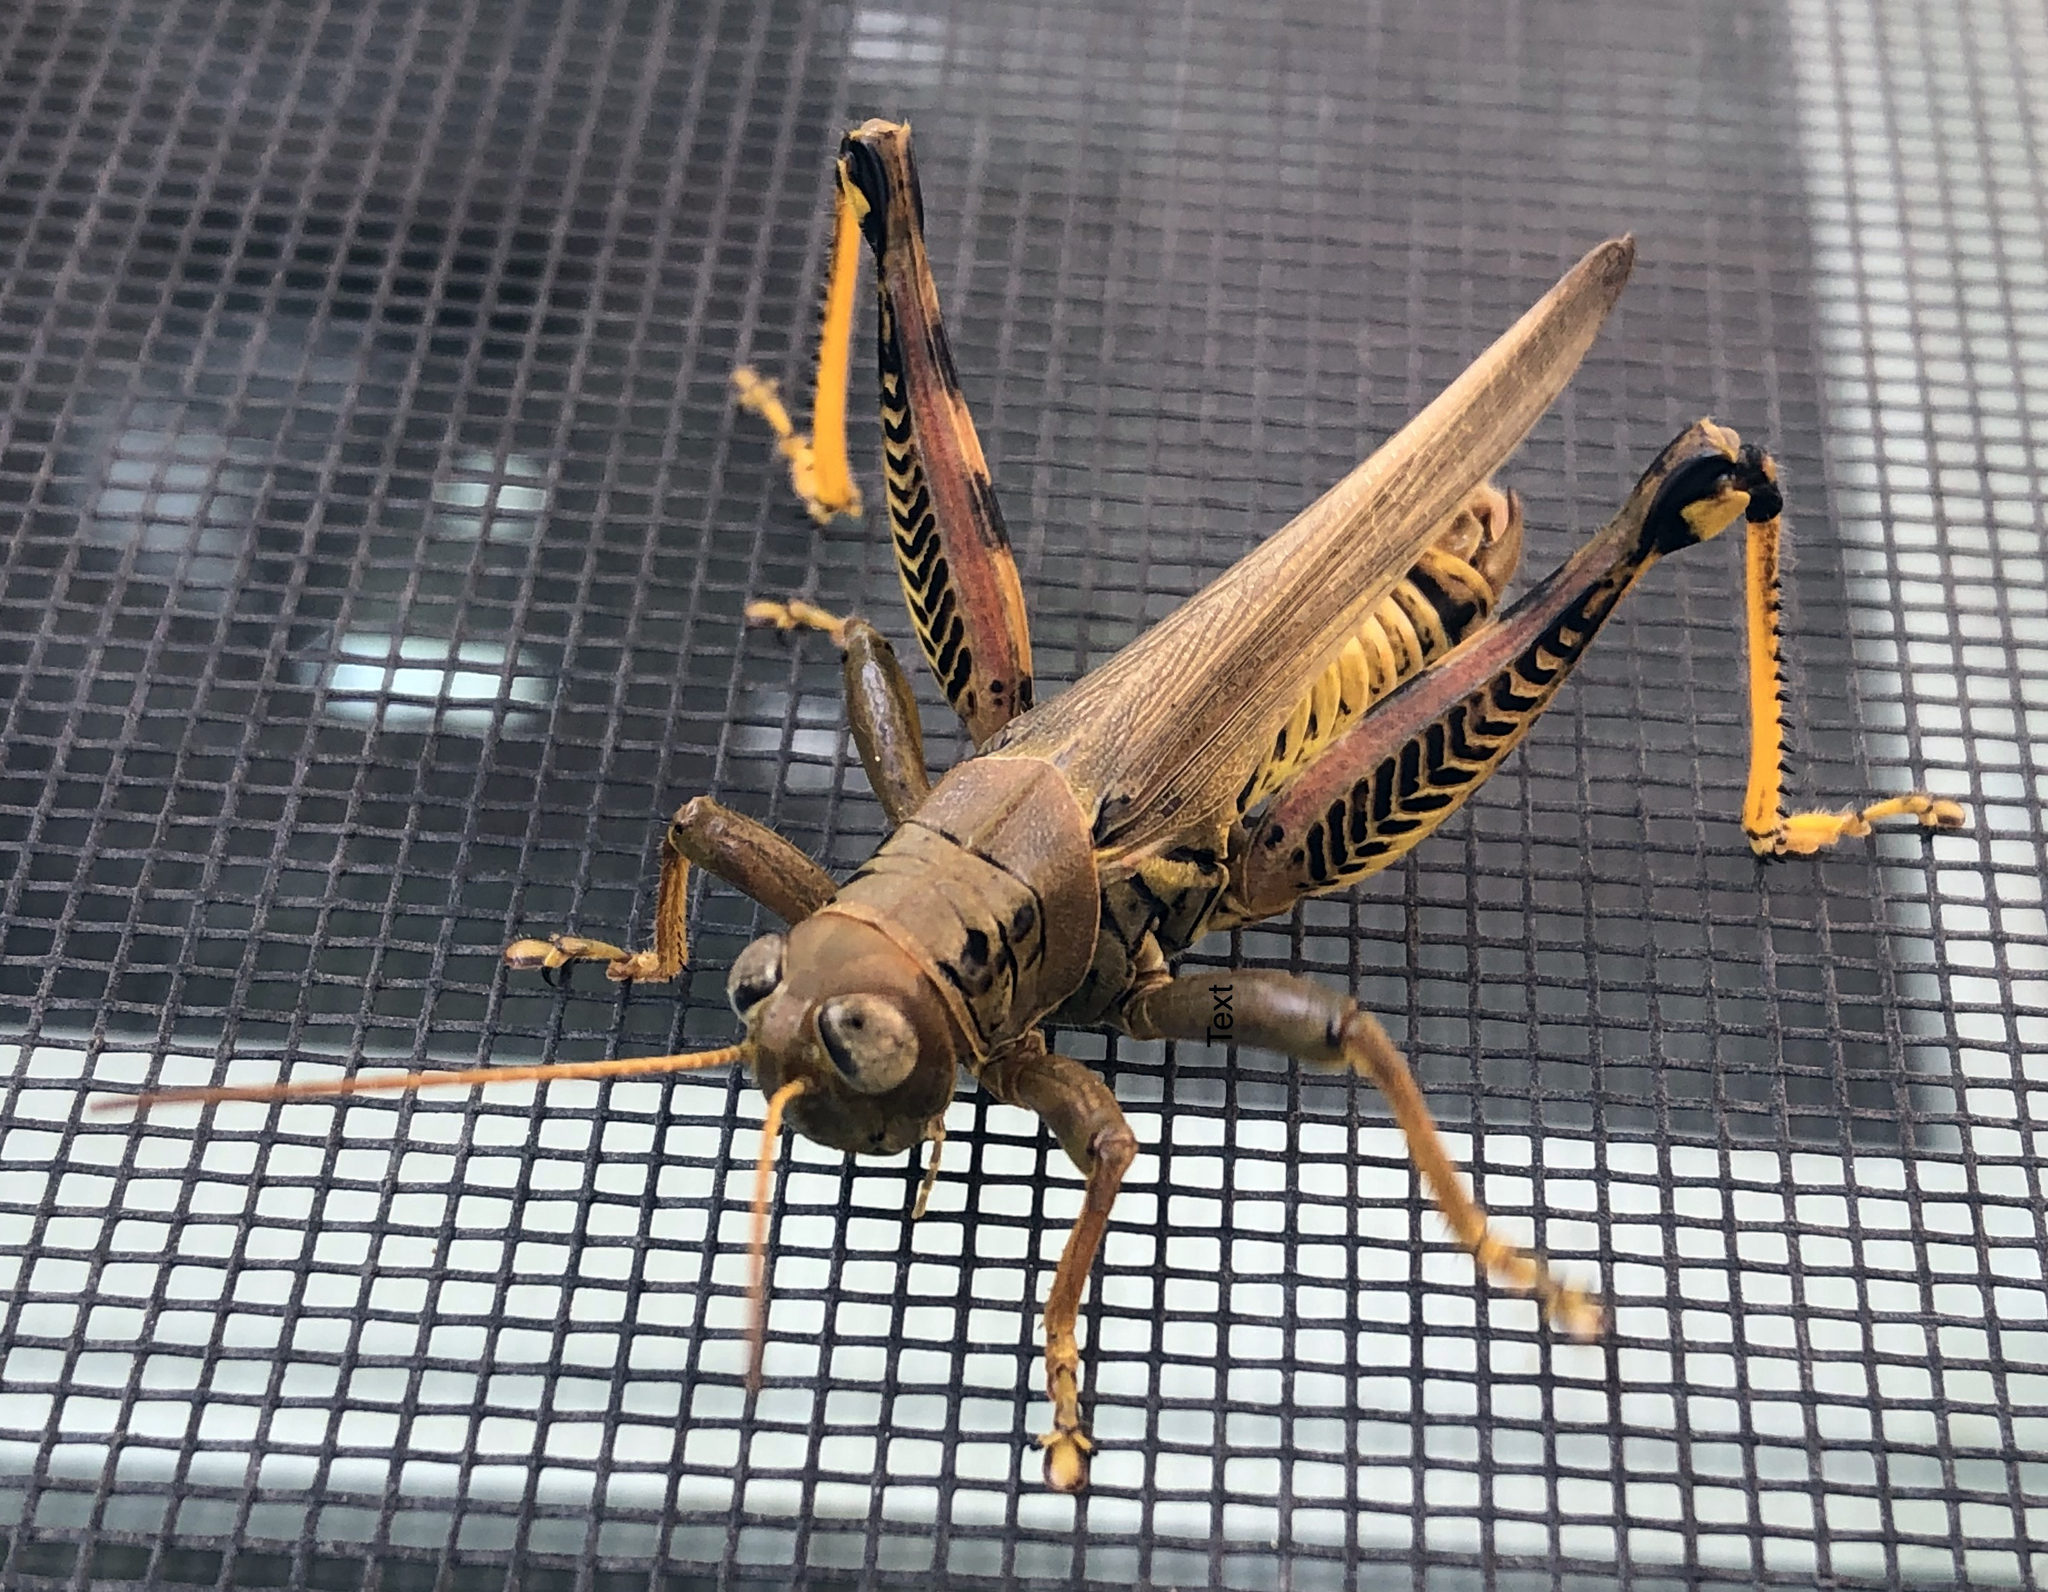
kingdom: Animalia
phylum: Arthropoda
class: Insecta
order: Orthoptera
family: Acrididae
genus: Melanoplus
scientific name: Melanoplus differentialis
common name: Differential grasshopper
